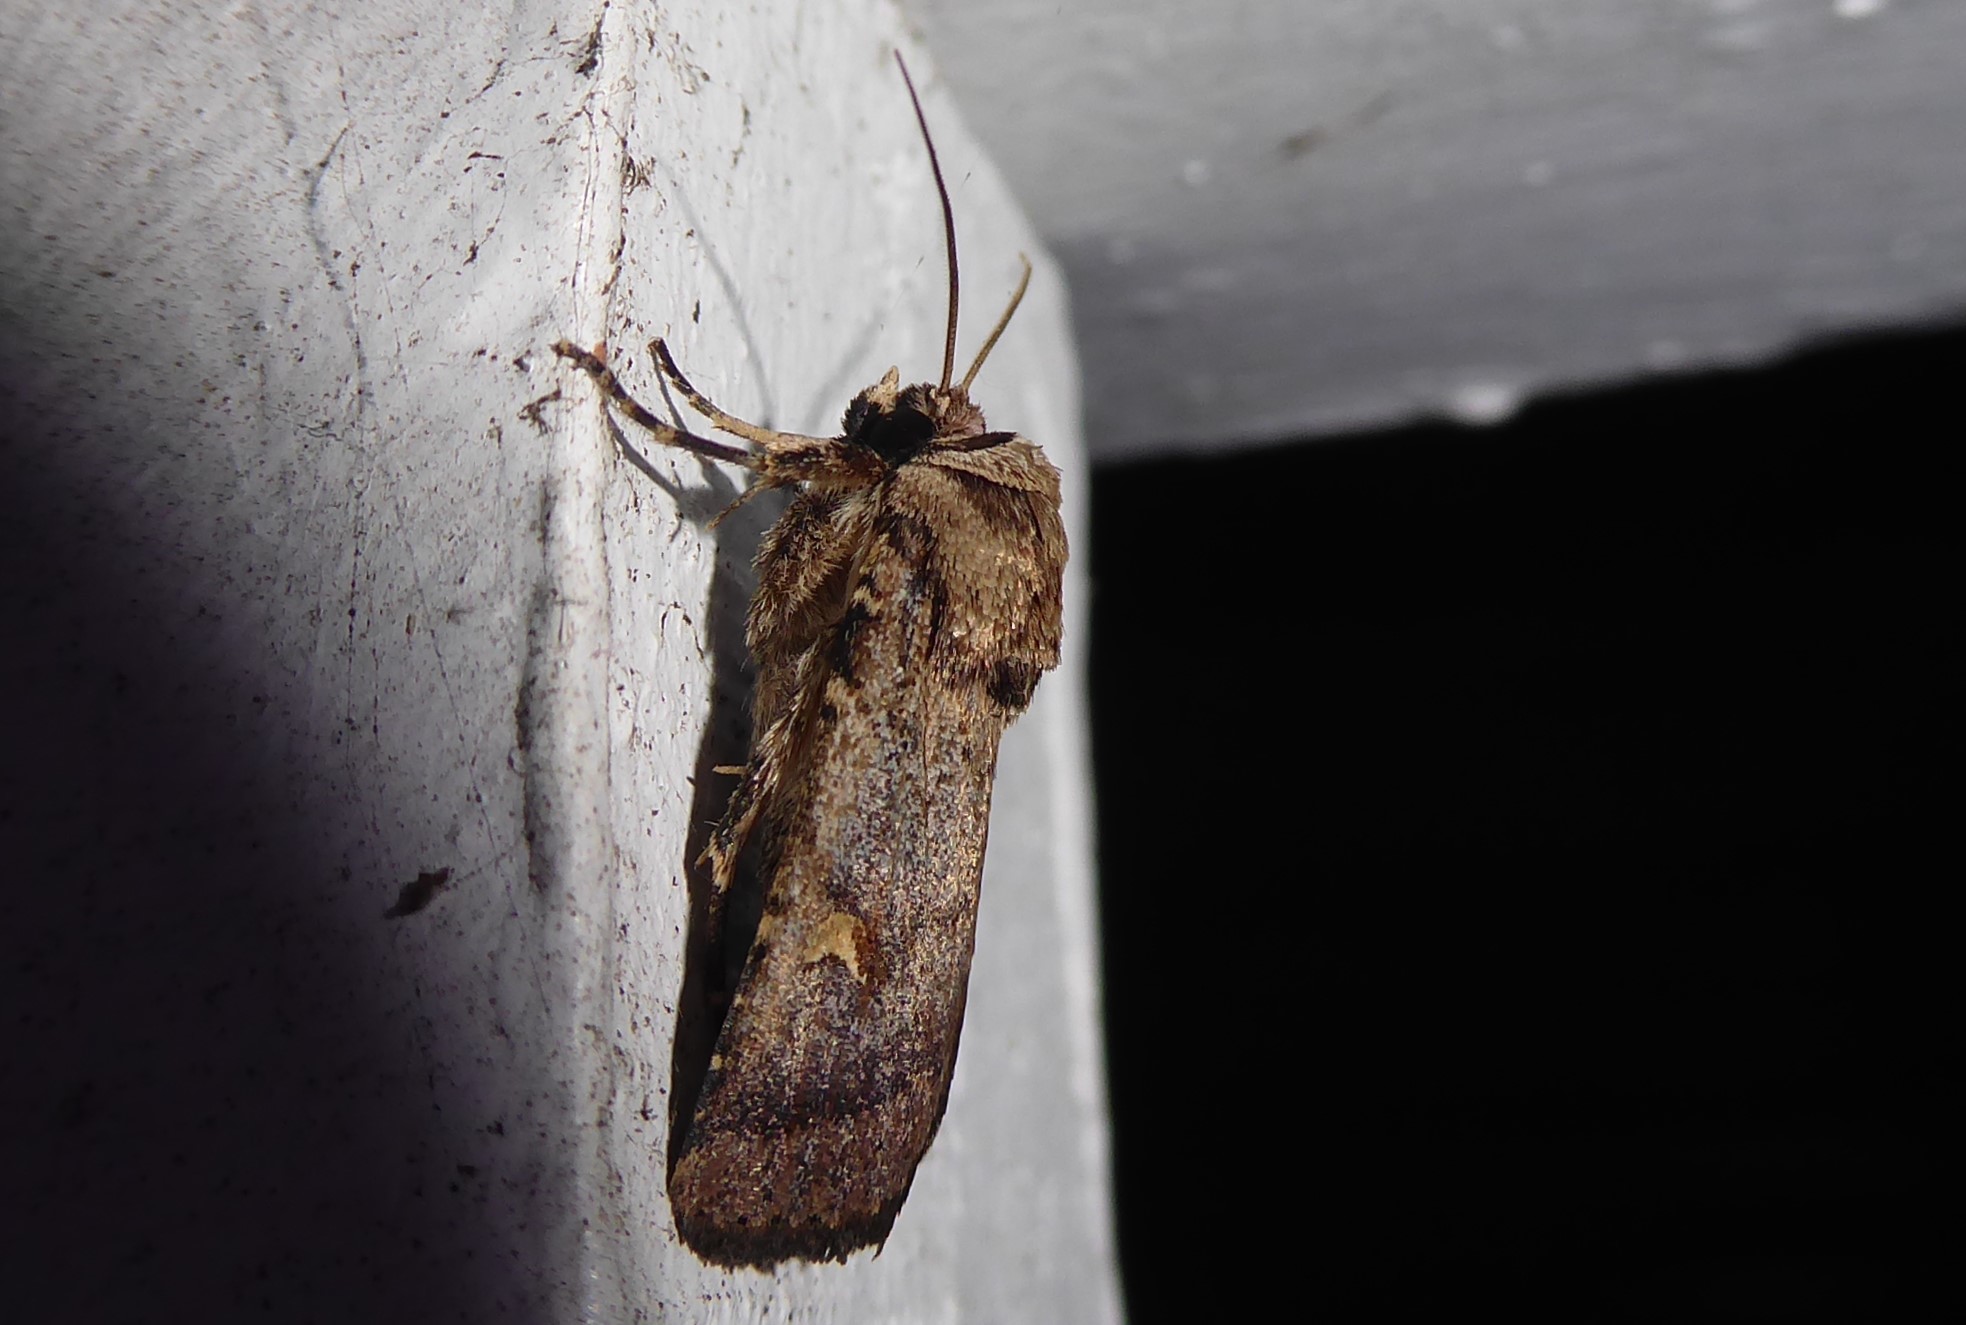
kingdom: Animalia
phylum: Arthropoda
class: Insecta
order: Lepidoptera
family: Noctuidae
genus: Proteuxoa
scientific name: Proteuxoa tetronycha
